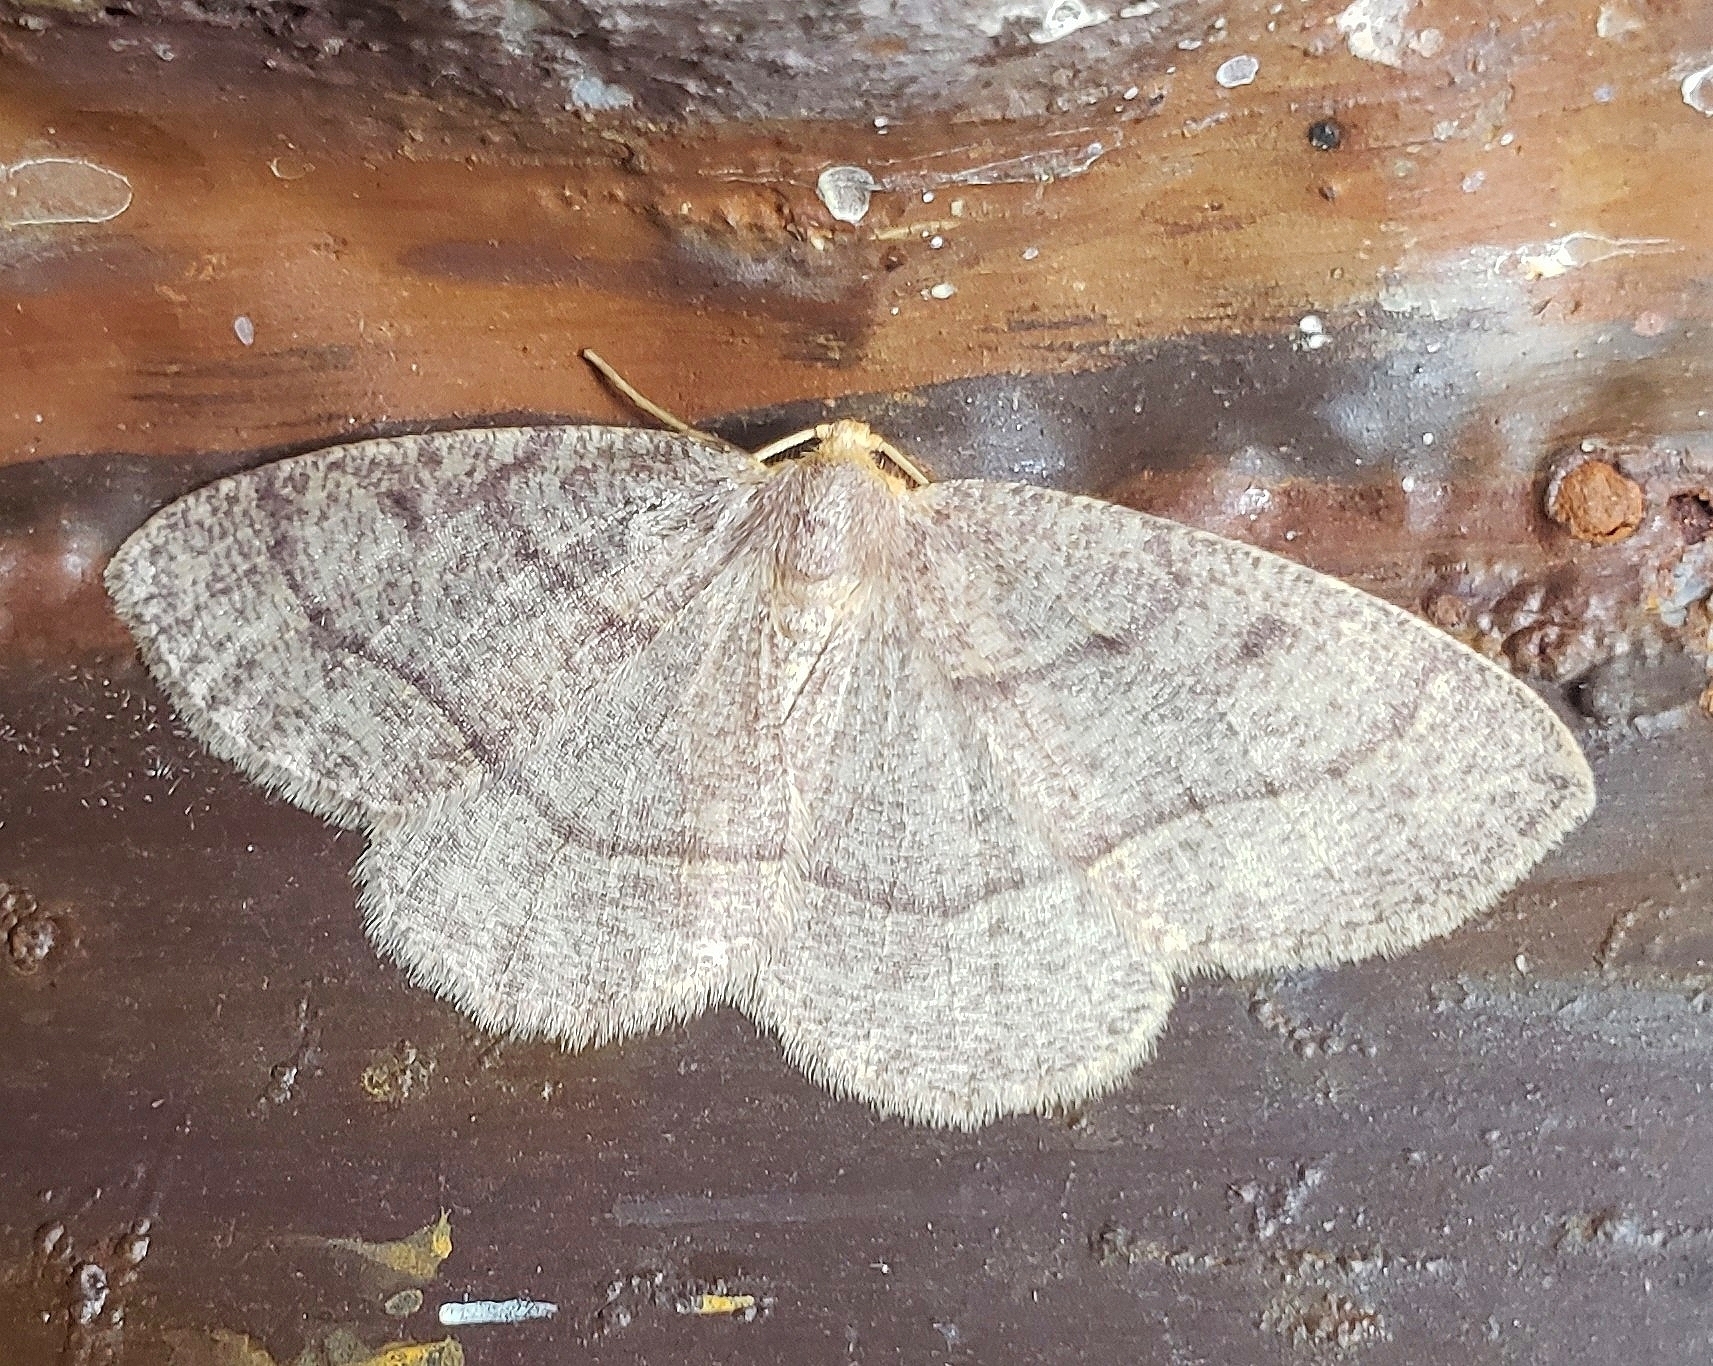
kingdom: Animalia
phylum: Arthropoda
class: Insecta
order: Lepidoptera
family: Geometridae
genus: Lambdina
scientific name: Lambdina fervidaria
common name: Curve-lined looper moth
